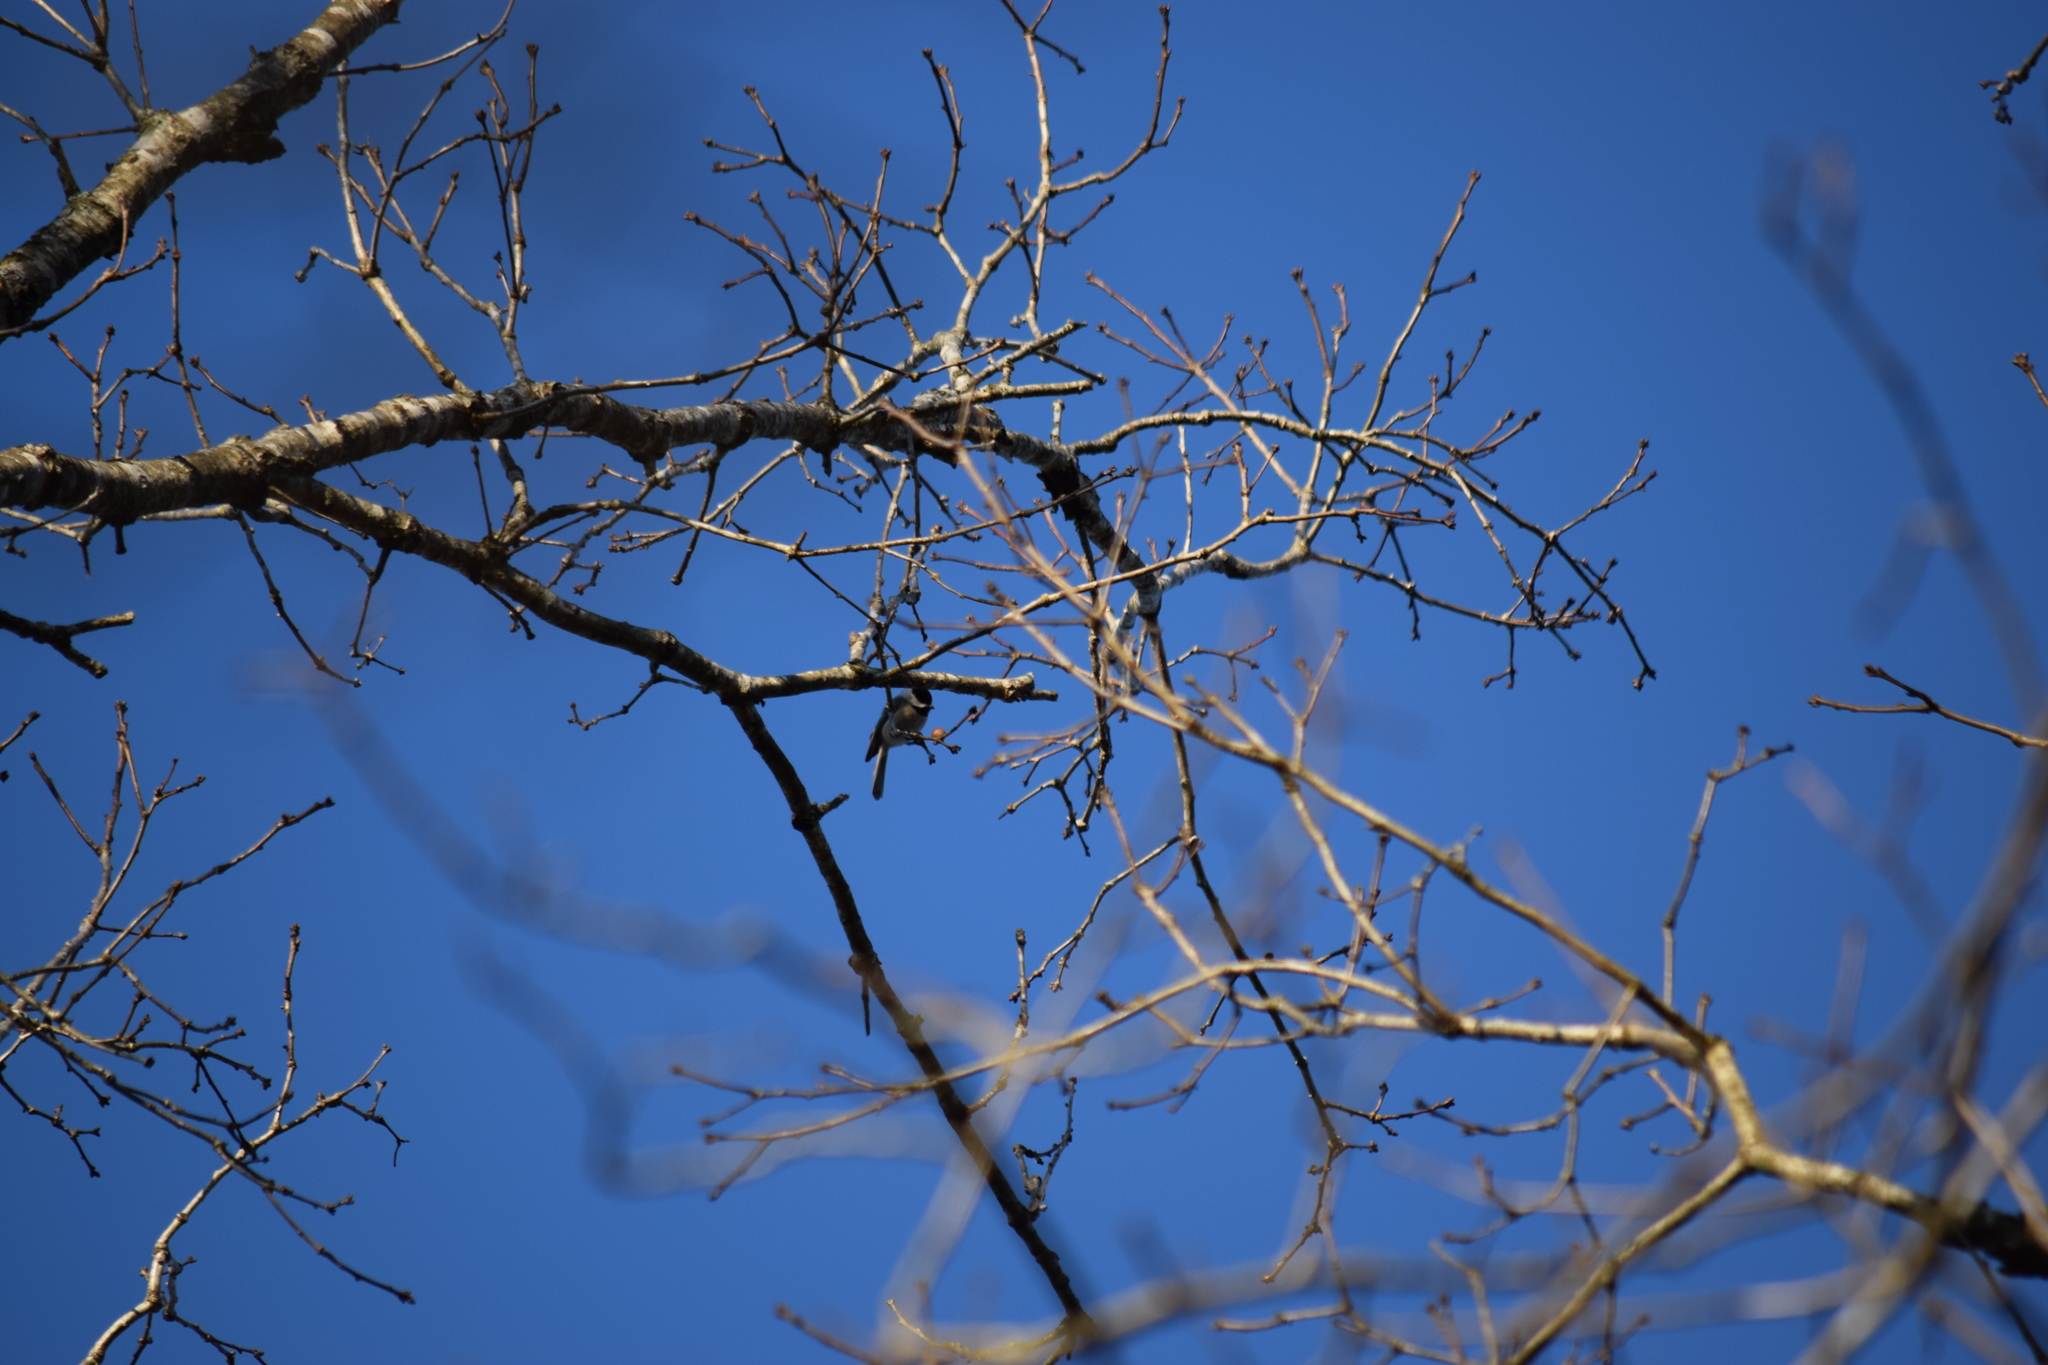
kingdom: Animalia
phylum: Chordata
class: Aves
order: Passeriformes
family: Paridae
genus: Poecile
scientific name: Poecile carolinensis
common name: Carolina chickadee
